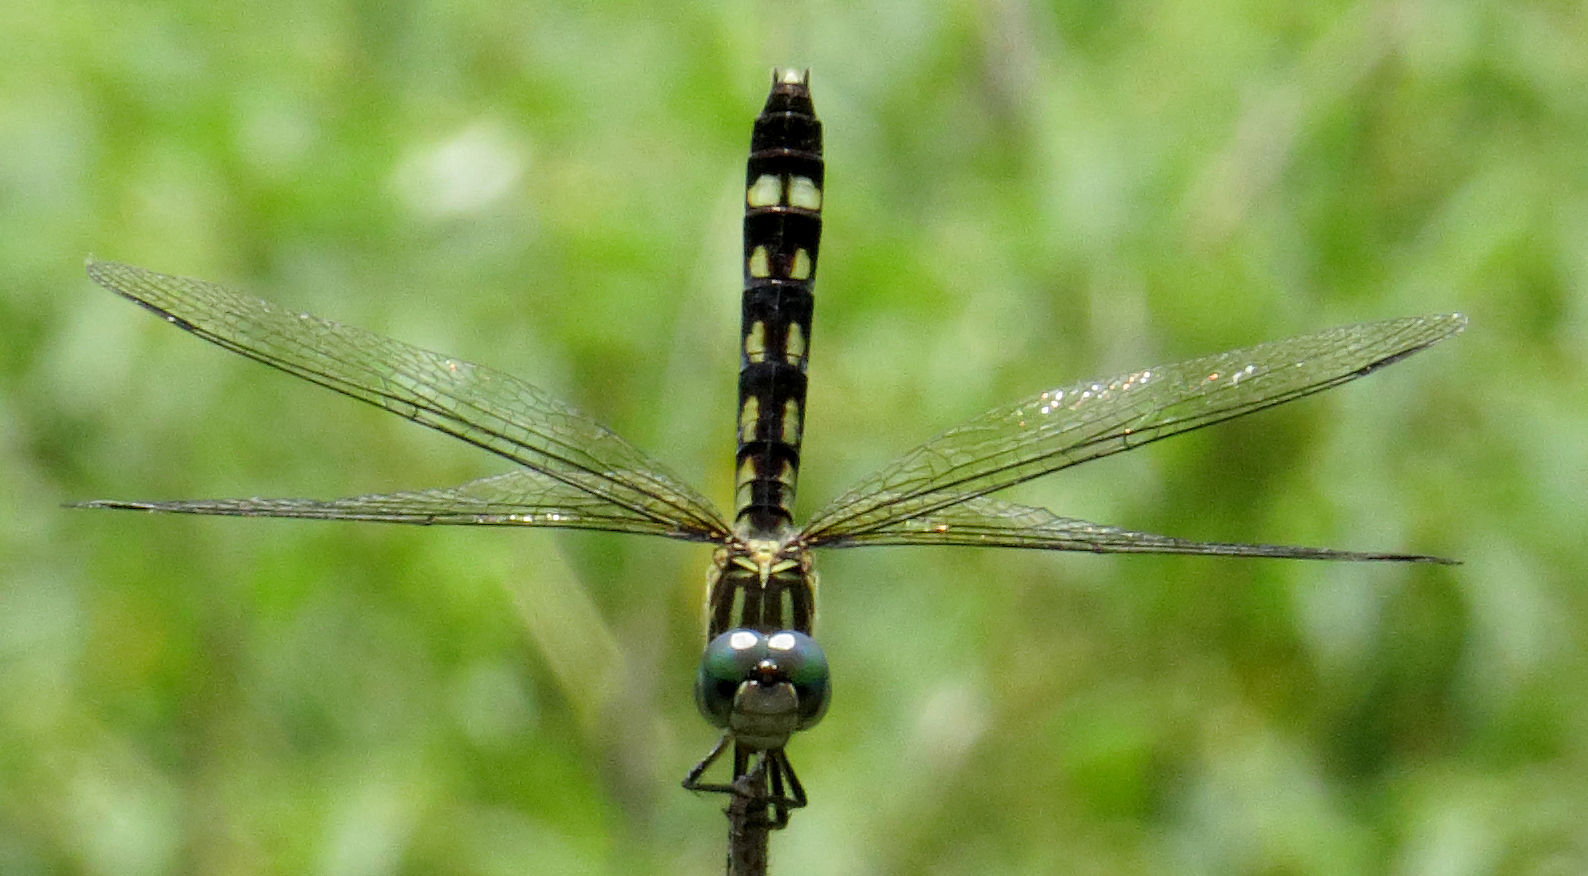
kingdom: Animalia
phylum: Arthropoda
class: Insecta
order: Odonata
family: Libellulidae
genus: Micrathyria
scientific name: Micrathyria hagenii
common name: Thornbush dasher
